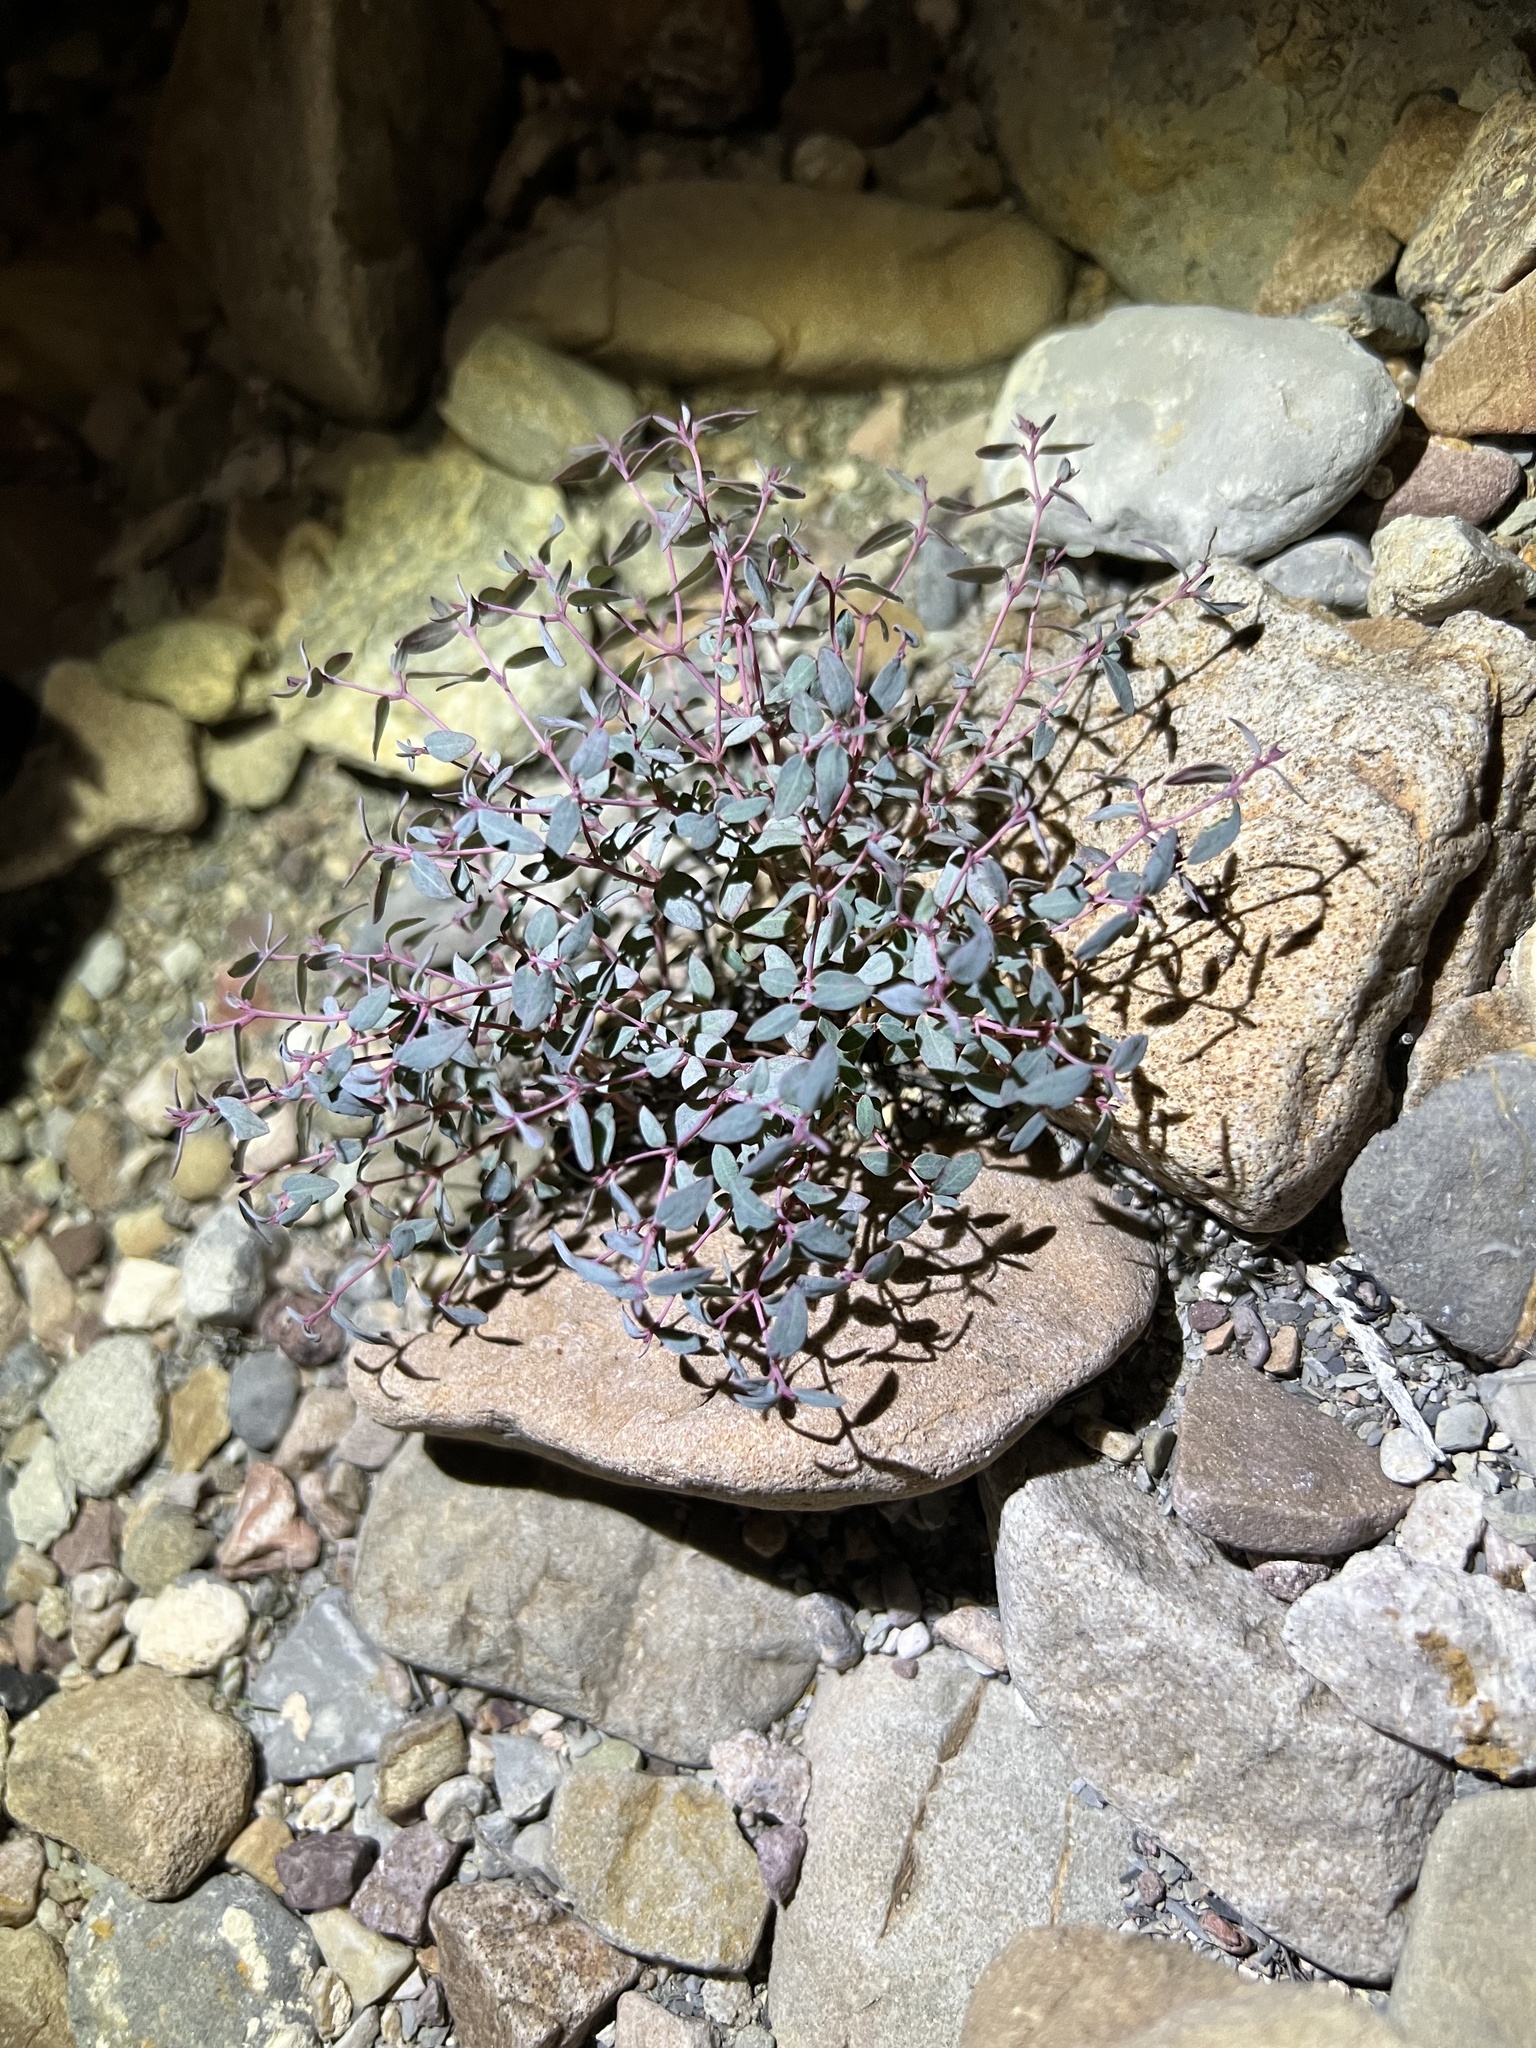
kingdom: Plantae
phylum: Tracheophyta
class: Magnoliopsida
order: Malpighiales
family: Euphorbiaceae
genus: Euphorbia
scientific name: Euphorbia fendleri
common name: Fendler's euphorbia
